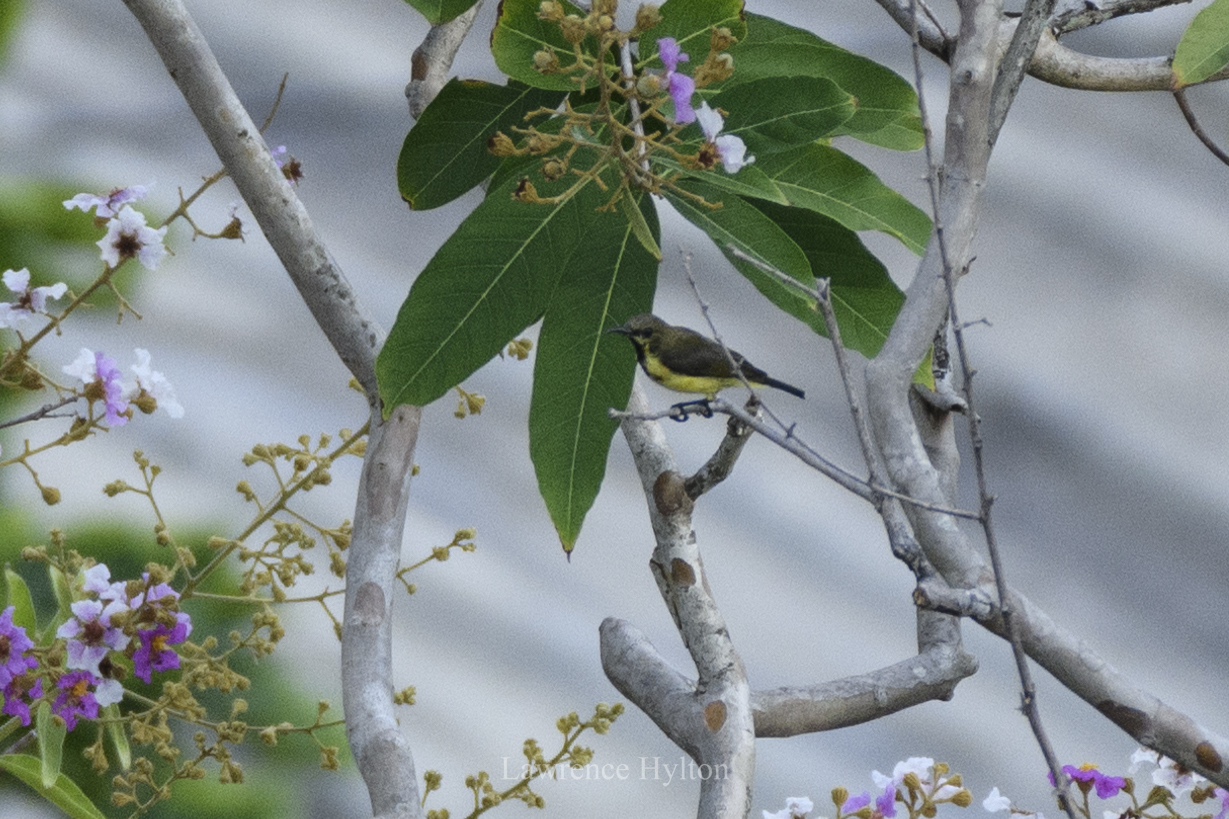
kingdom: Animalia
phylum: Chordata
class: Aves
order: Passeriformes
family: Nectariniidae
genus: Cinnyris
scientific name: Cinnyris
